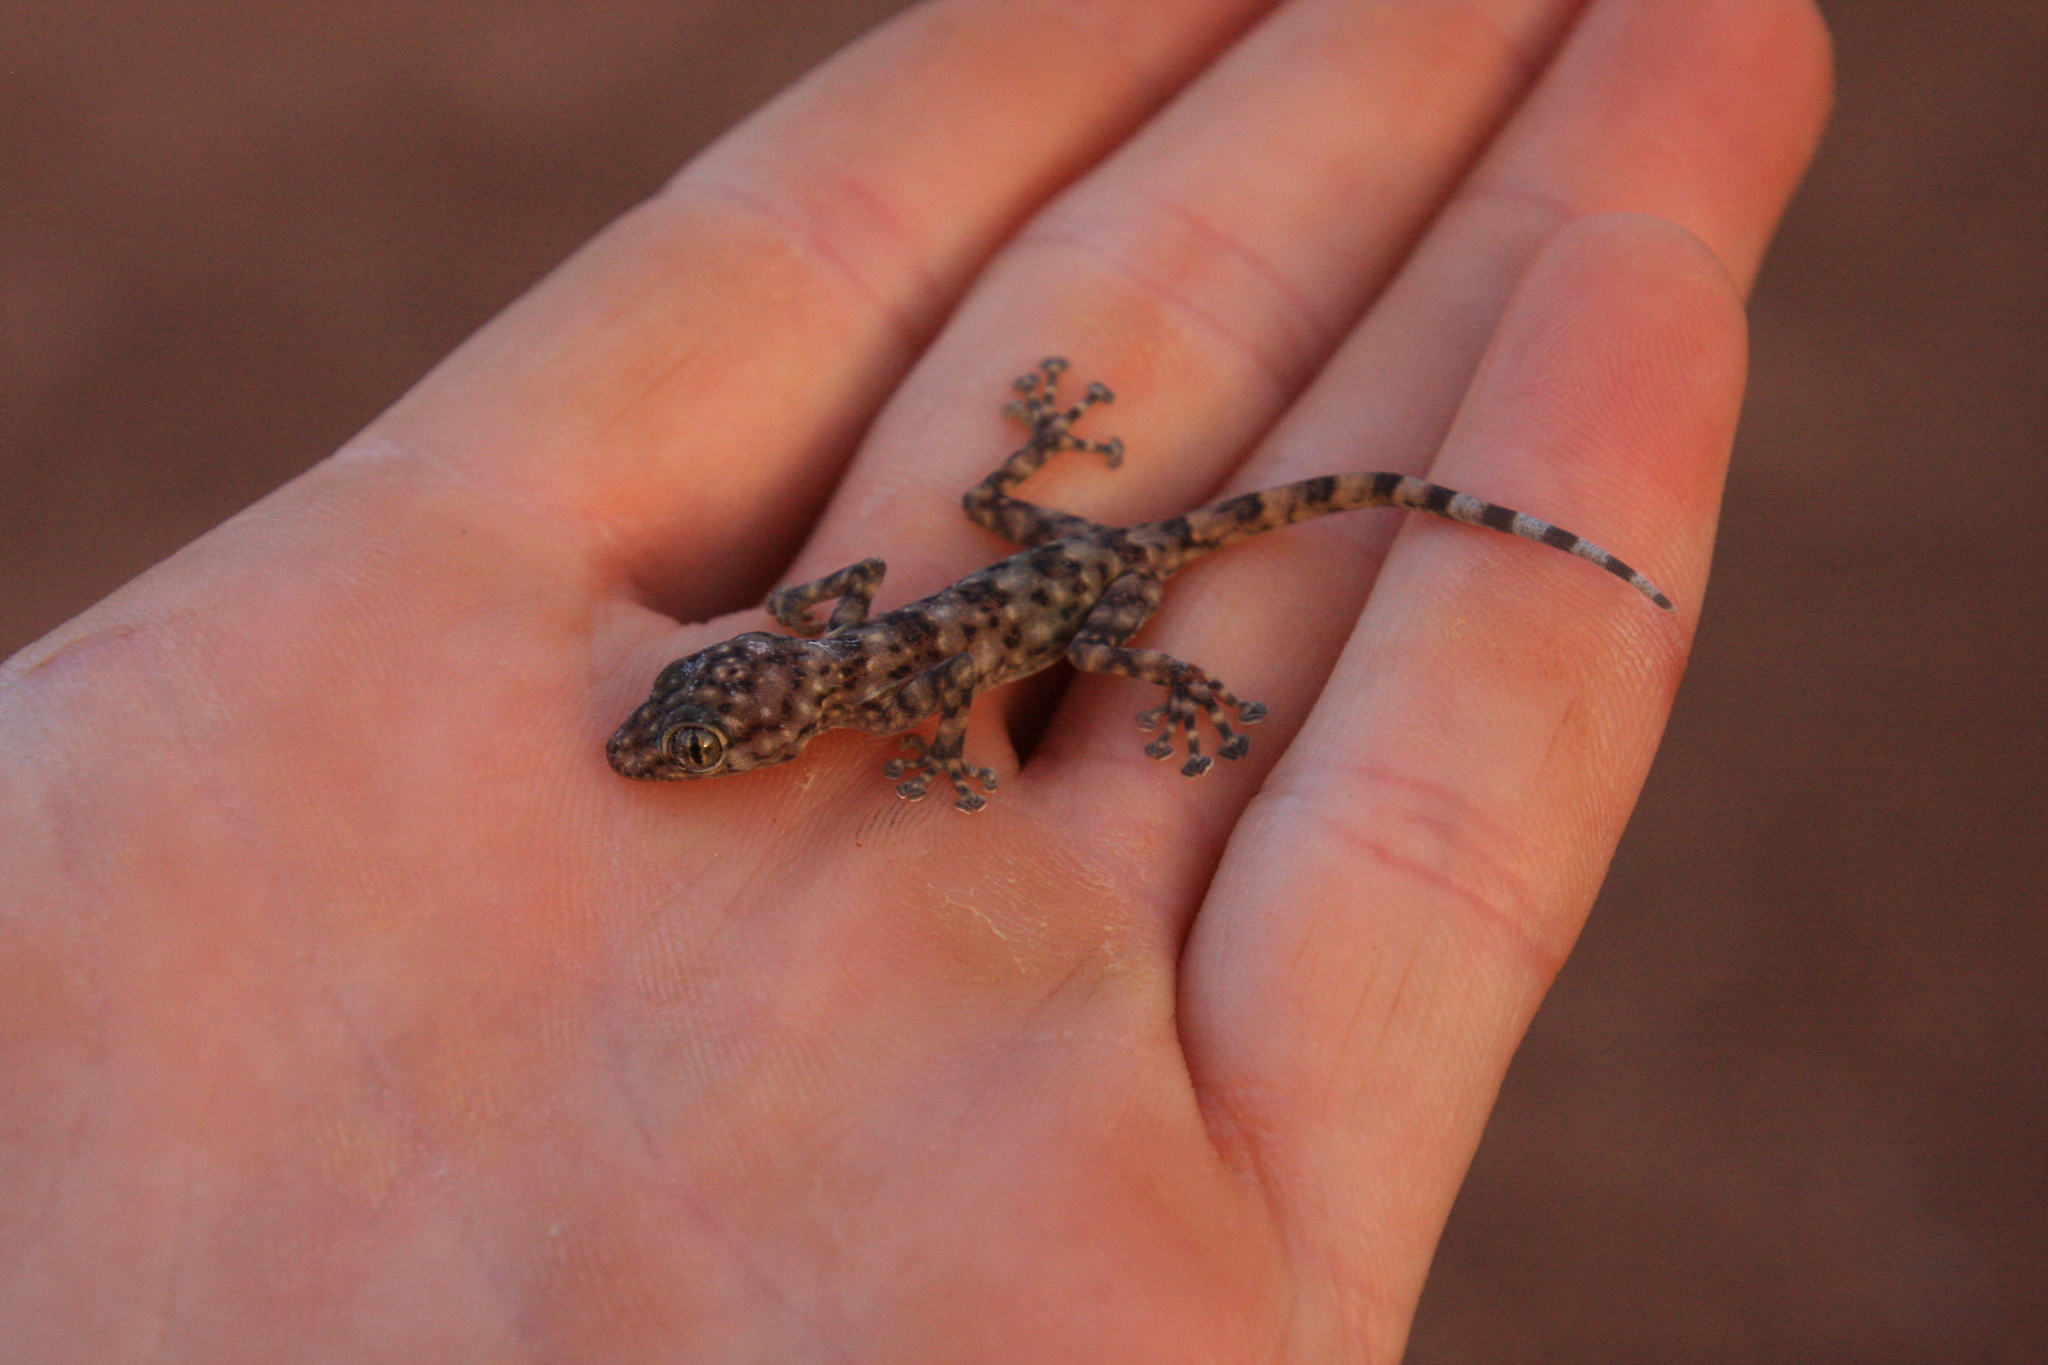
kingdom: Animalia
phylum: Chordata
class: Squamata
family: Phyllodactylidae
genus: Ptyodactylus
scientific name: Ptyodactylus ragazzii
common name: Ragazzi’s fan-footed gecko
